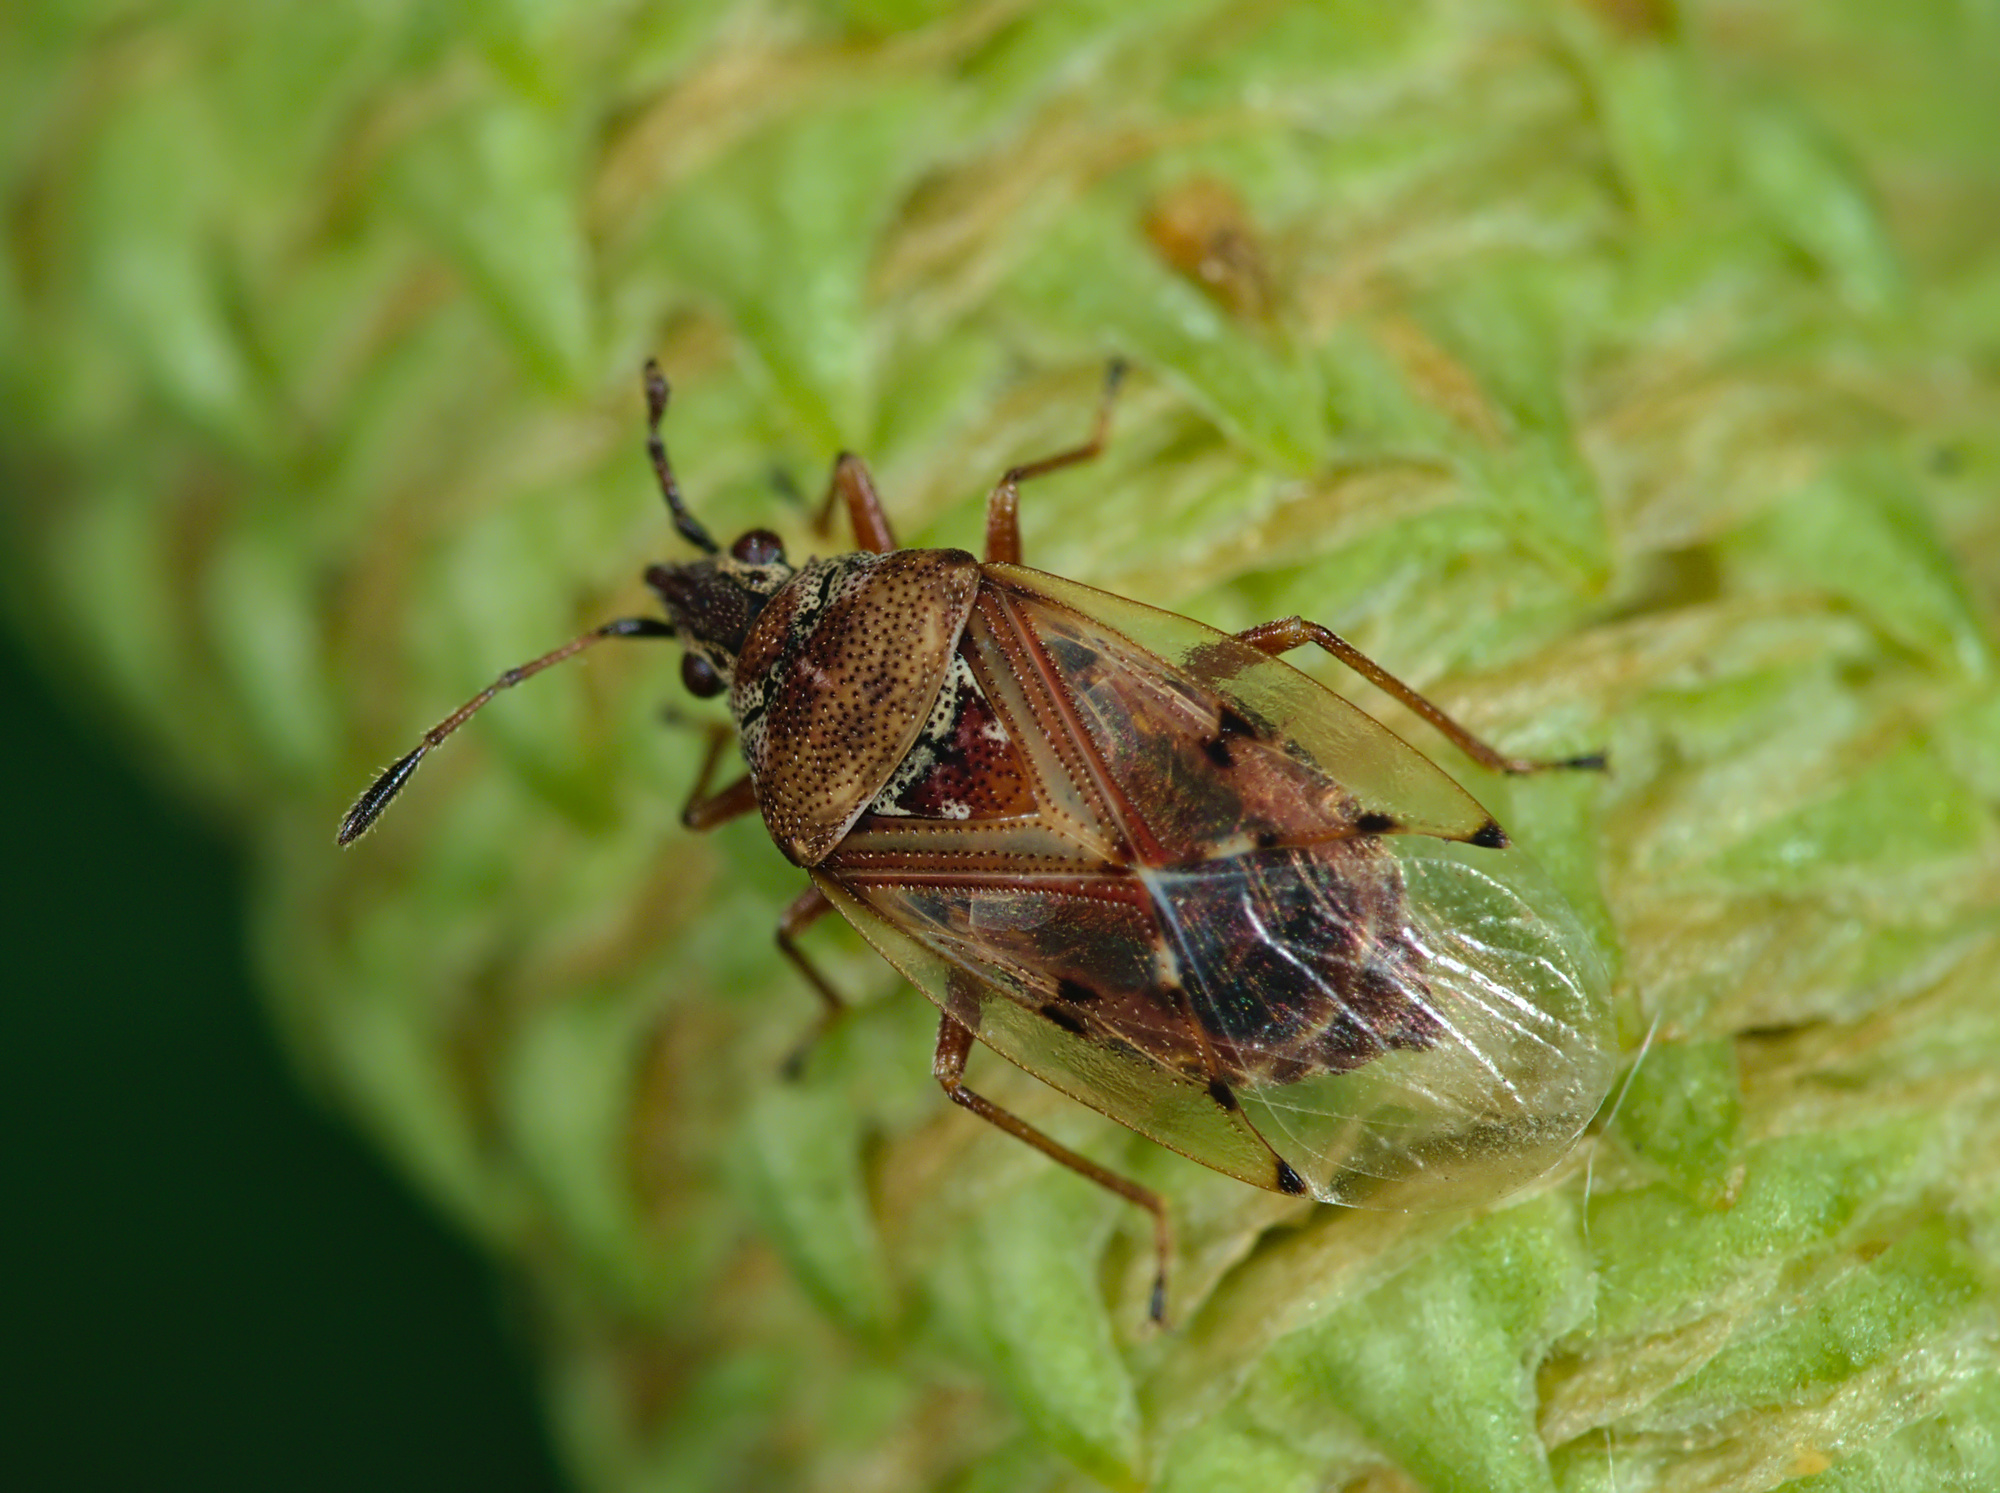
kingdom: Animalia
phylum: Arthropoda
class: Insecta
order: Hemiptera
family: Lygaeidae
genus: Kleidocerys
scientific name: Kleidocerys resedae
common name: Birch catkin bug
